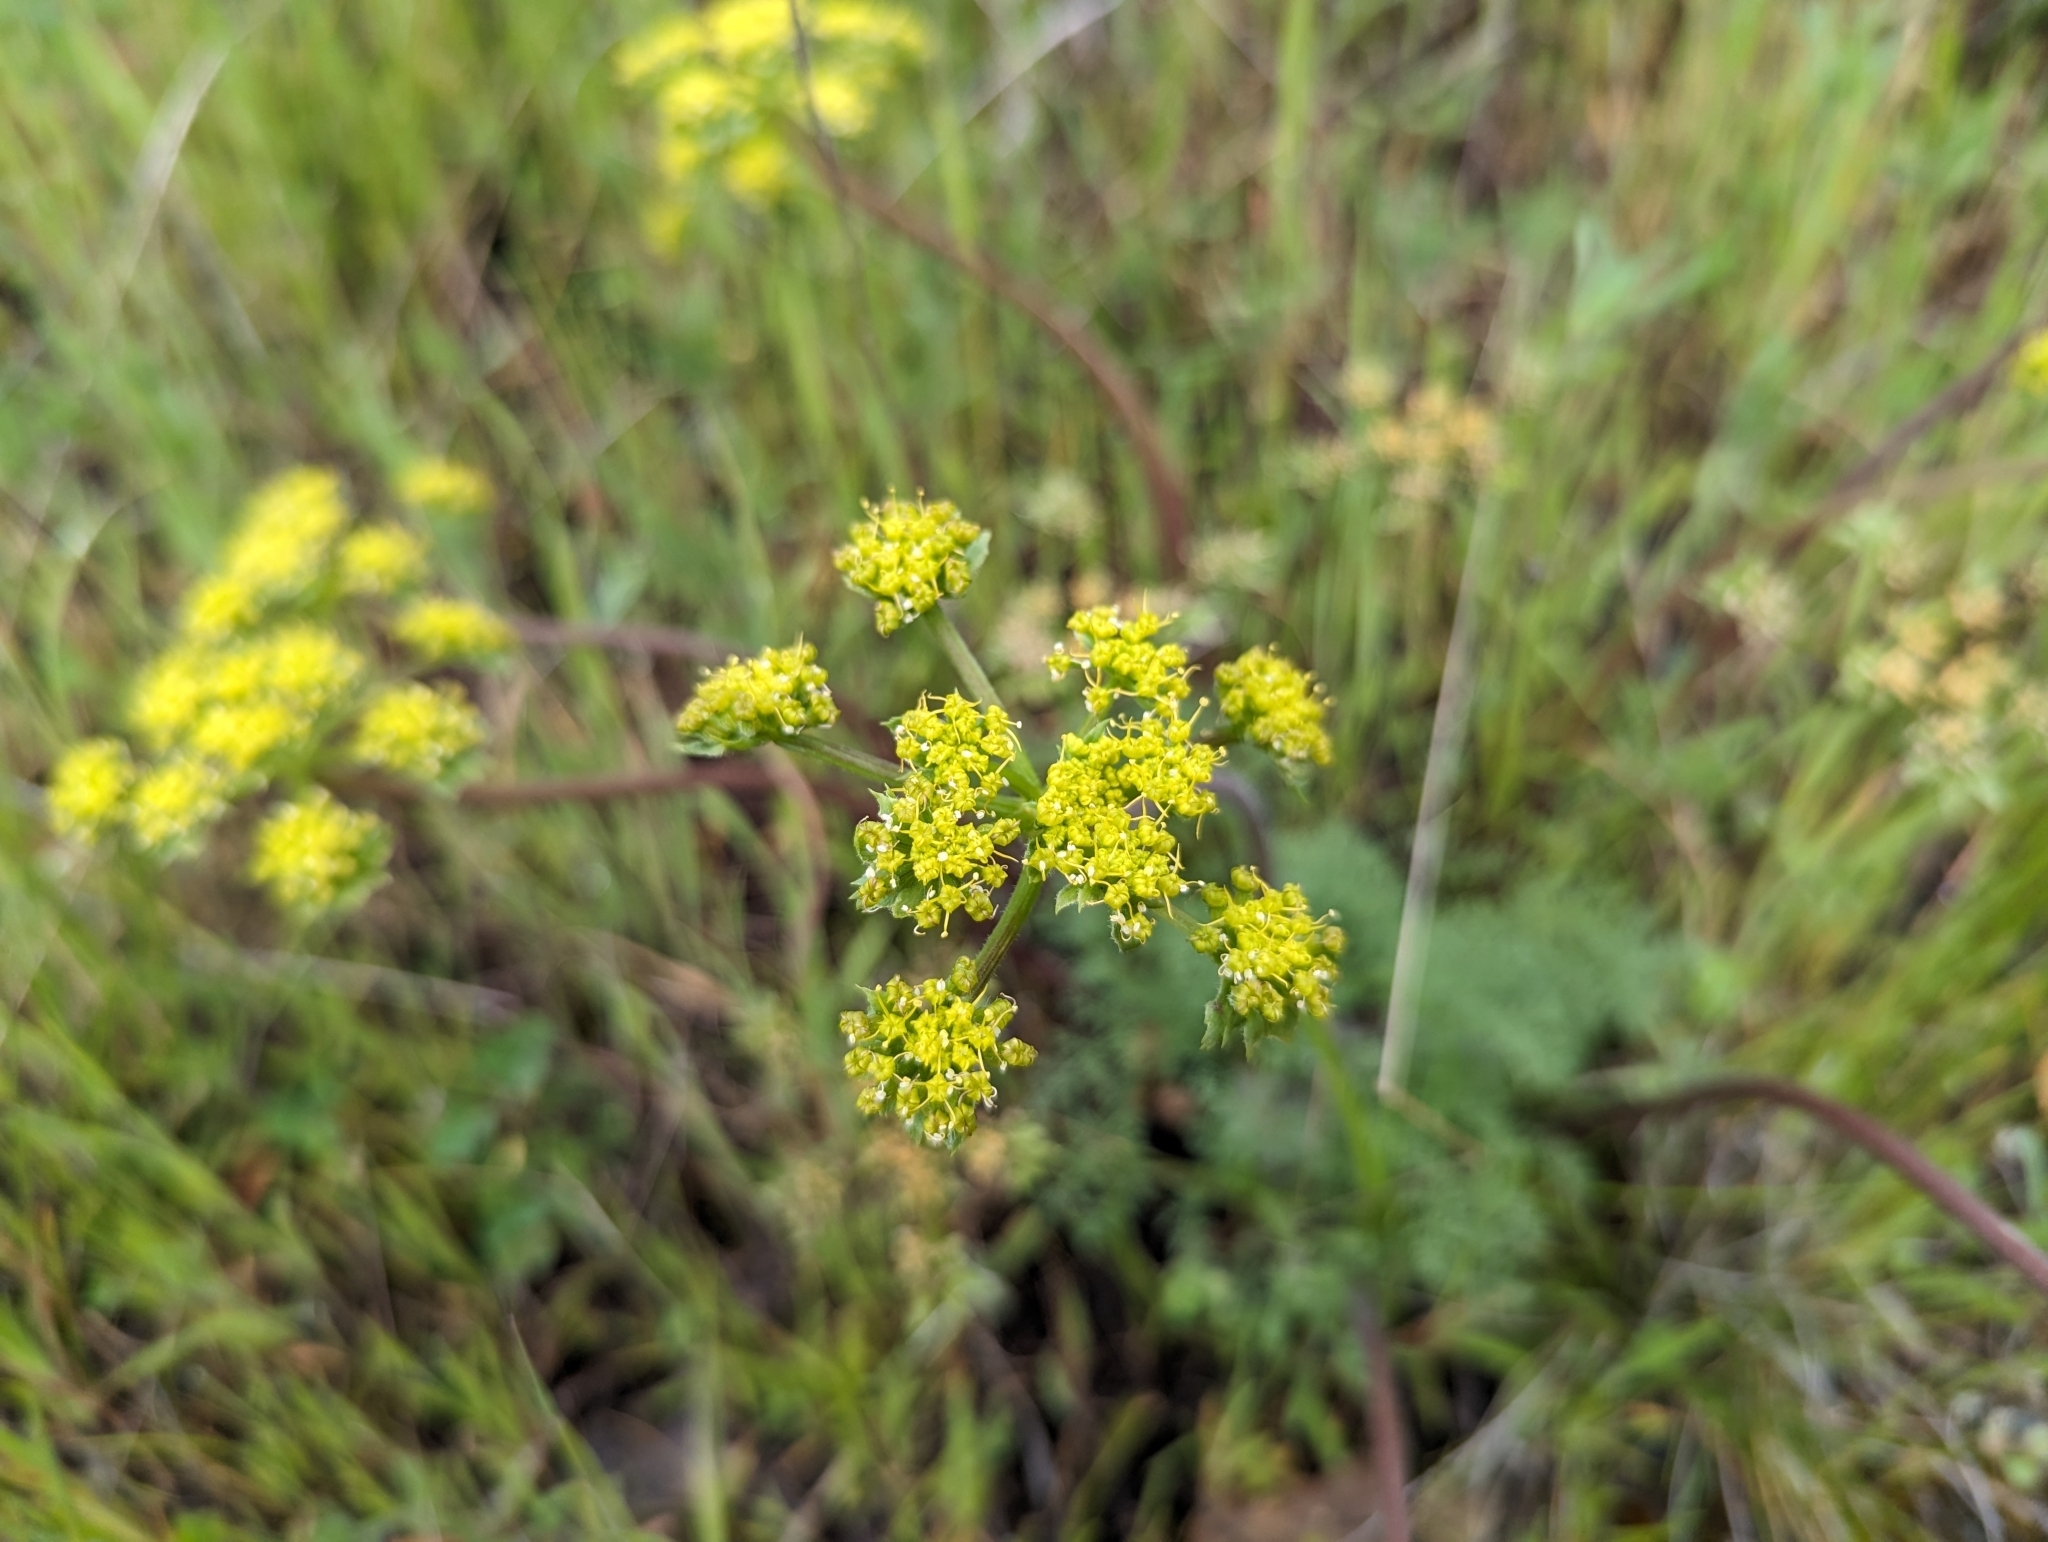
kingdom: Plantae
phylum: Tracheophyta
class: Magnoliopsida
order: Apiales
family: Apiaceae
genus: Lomatium
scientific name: Lomatium dasycarpum
